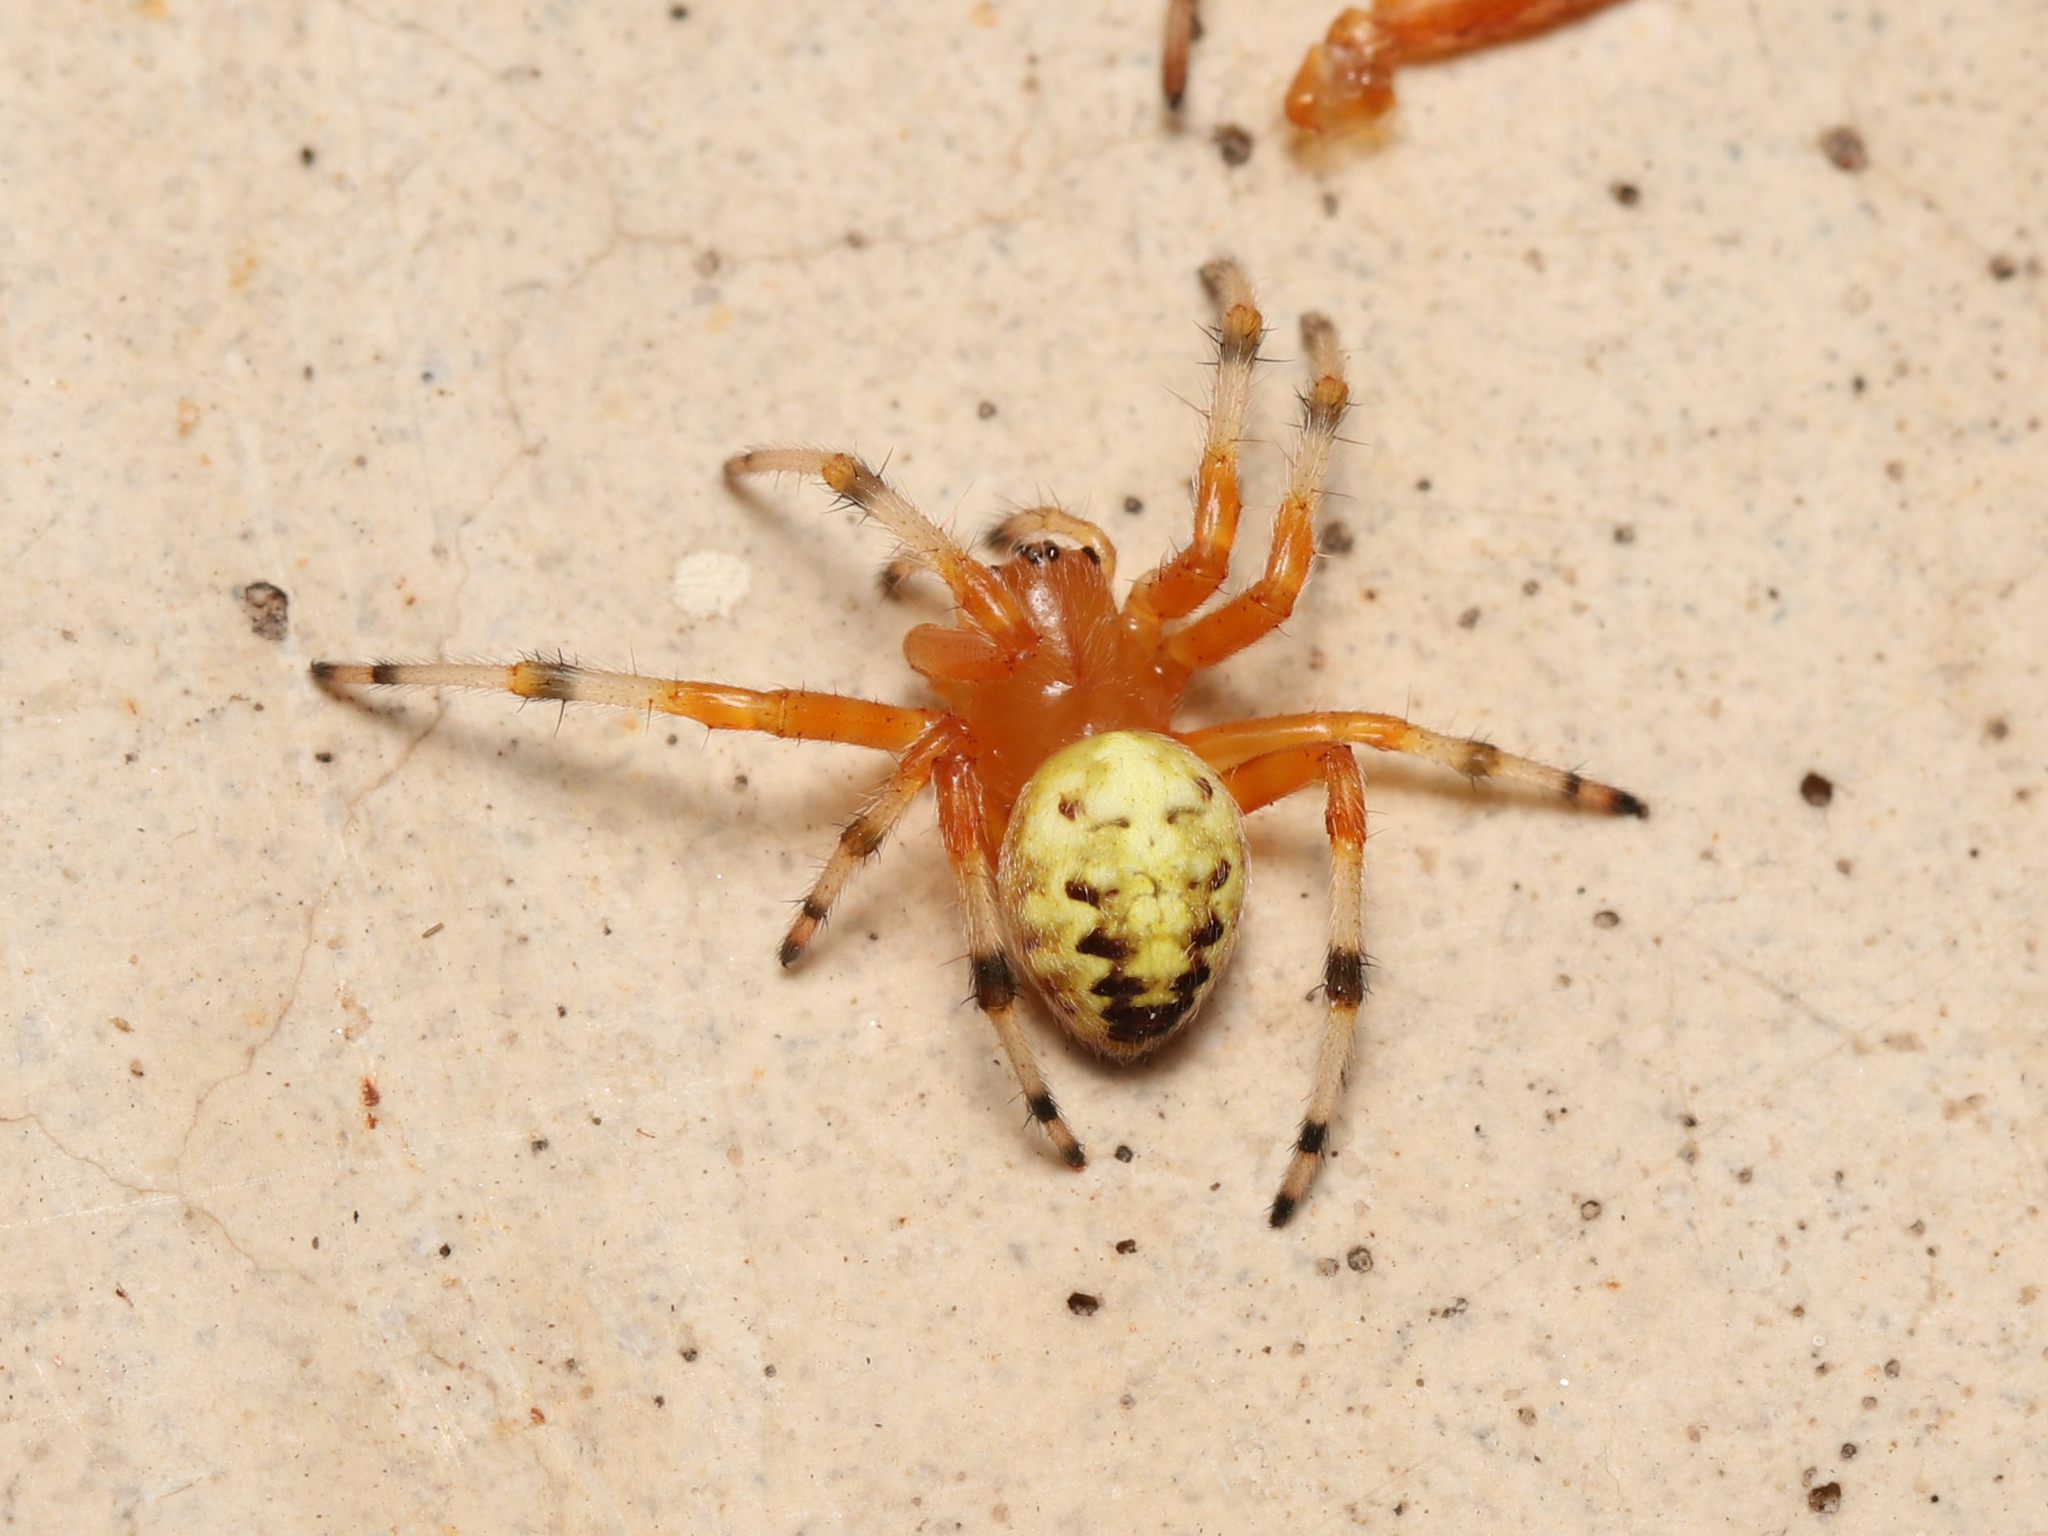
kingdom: Animalia
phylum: Arthropoda
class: Arachnida
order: Araneae
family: Araneidae
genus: Araneus
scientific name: Araneus marmoreus
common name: Marbled orbweaver
